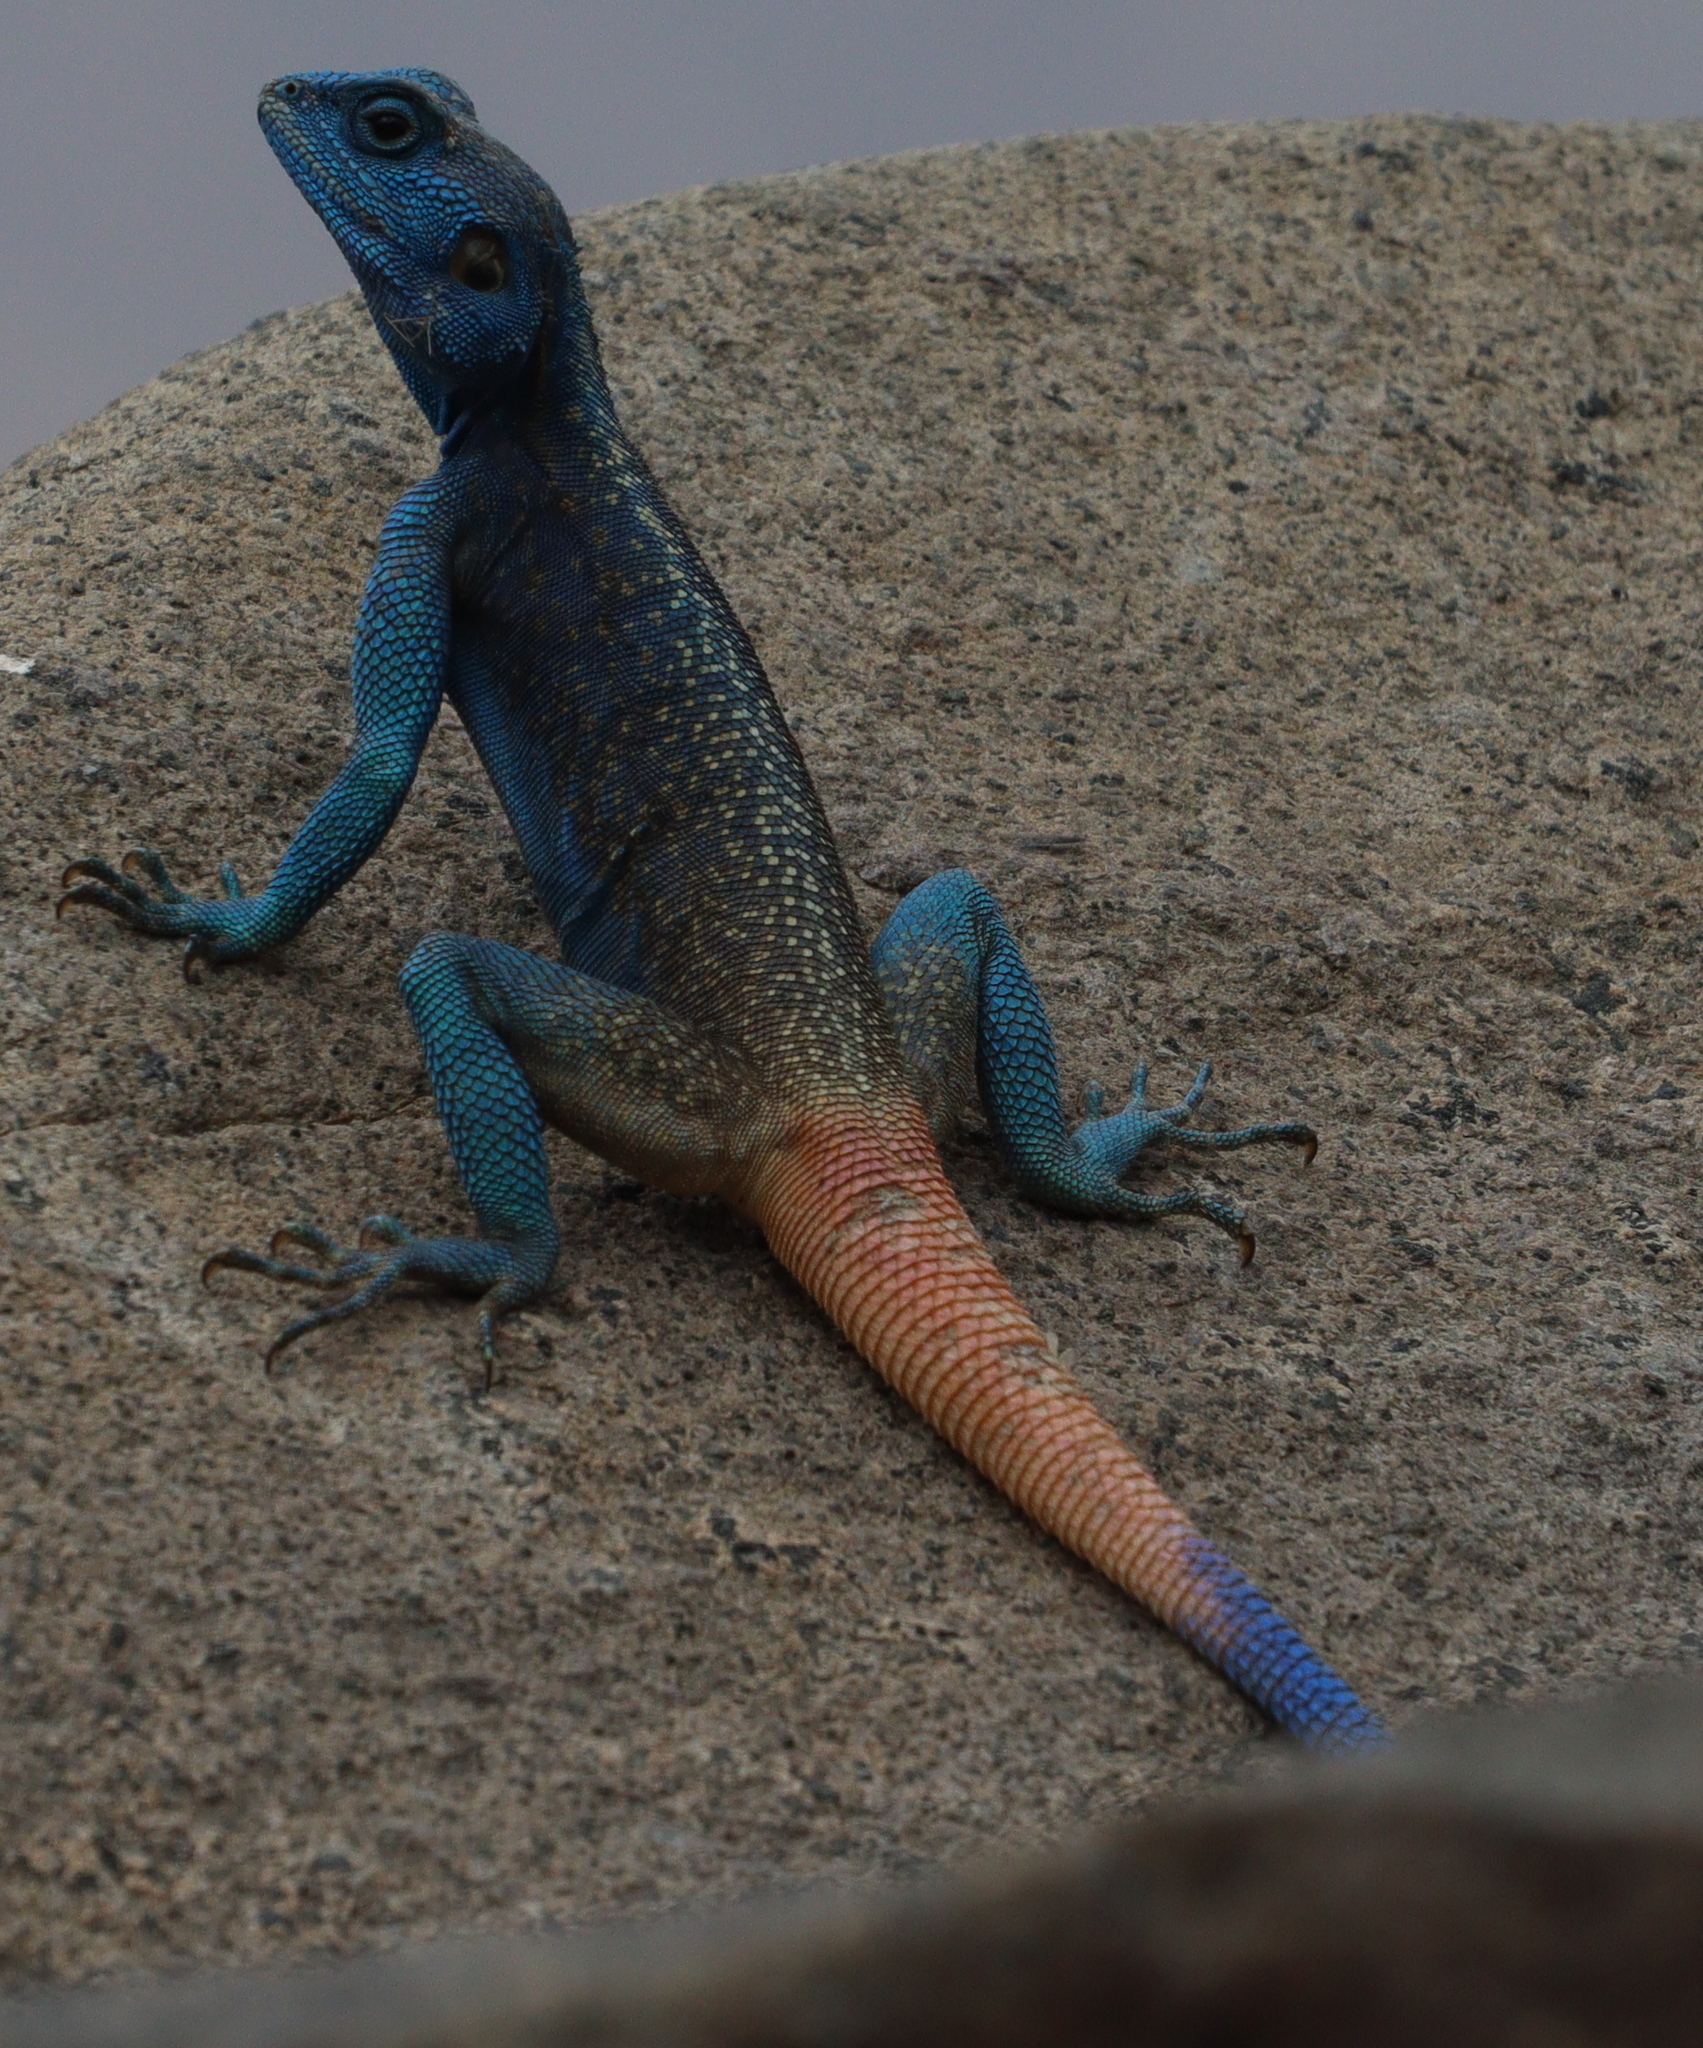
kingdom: Animalia
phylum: Chordata
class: Squamata
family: Agamidae
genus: Acanthocercus
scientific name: Acanthocercus adramitanus
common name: Anderson's rock agama
